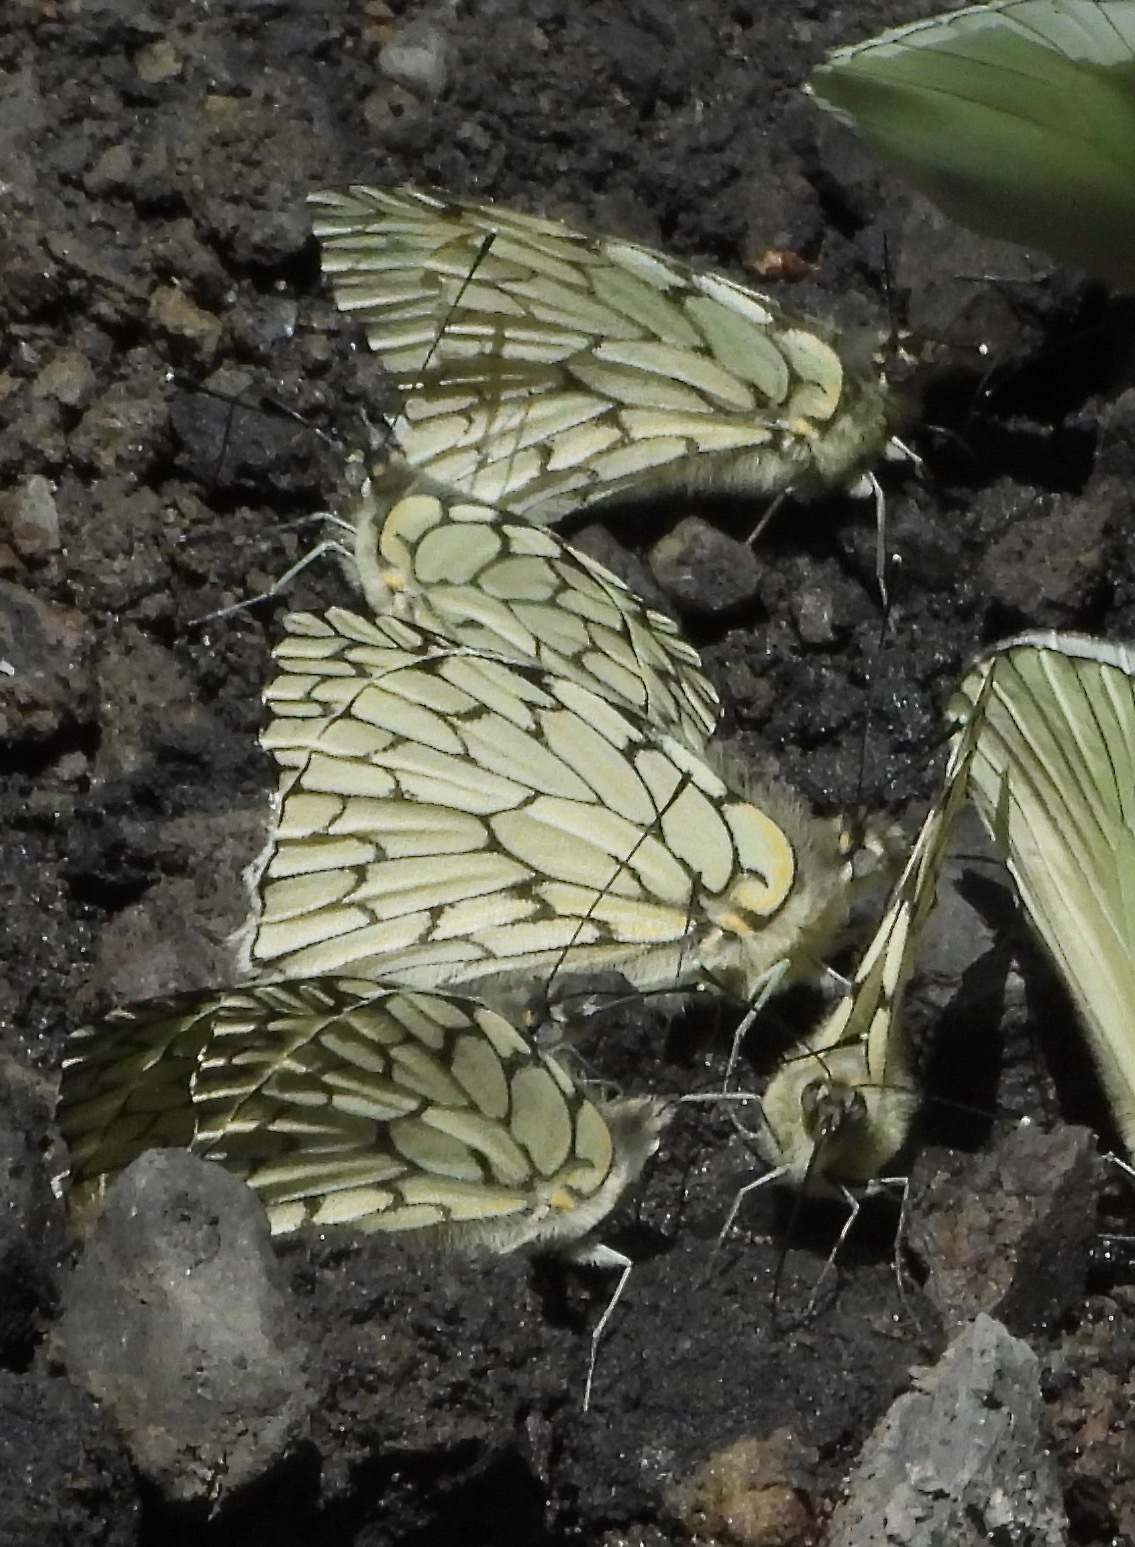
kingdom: Animalia
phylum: Arthropoda
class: Insecta
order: Lepidoptera
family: Pieridae
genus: Hesperocharis
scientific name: Hesperocharis marchalii
